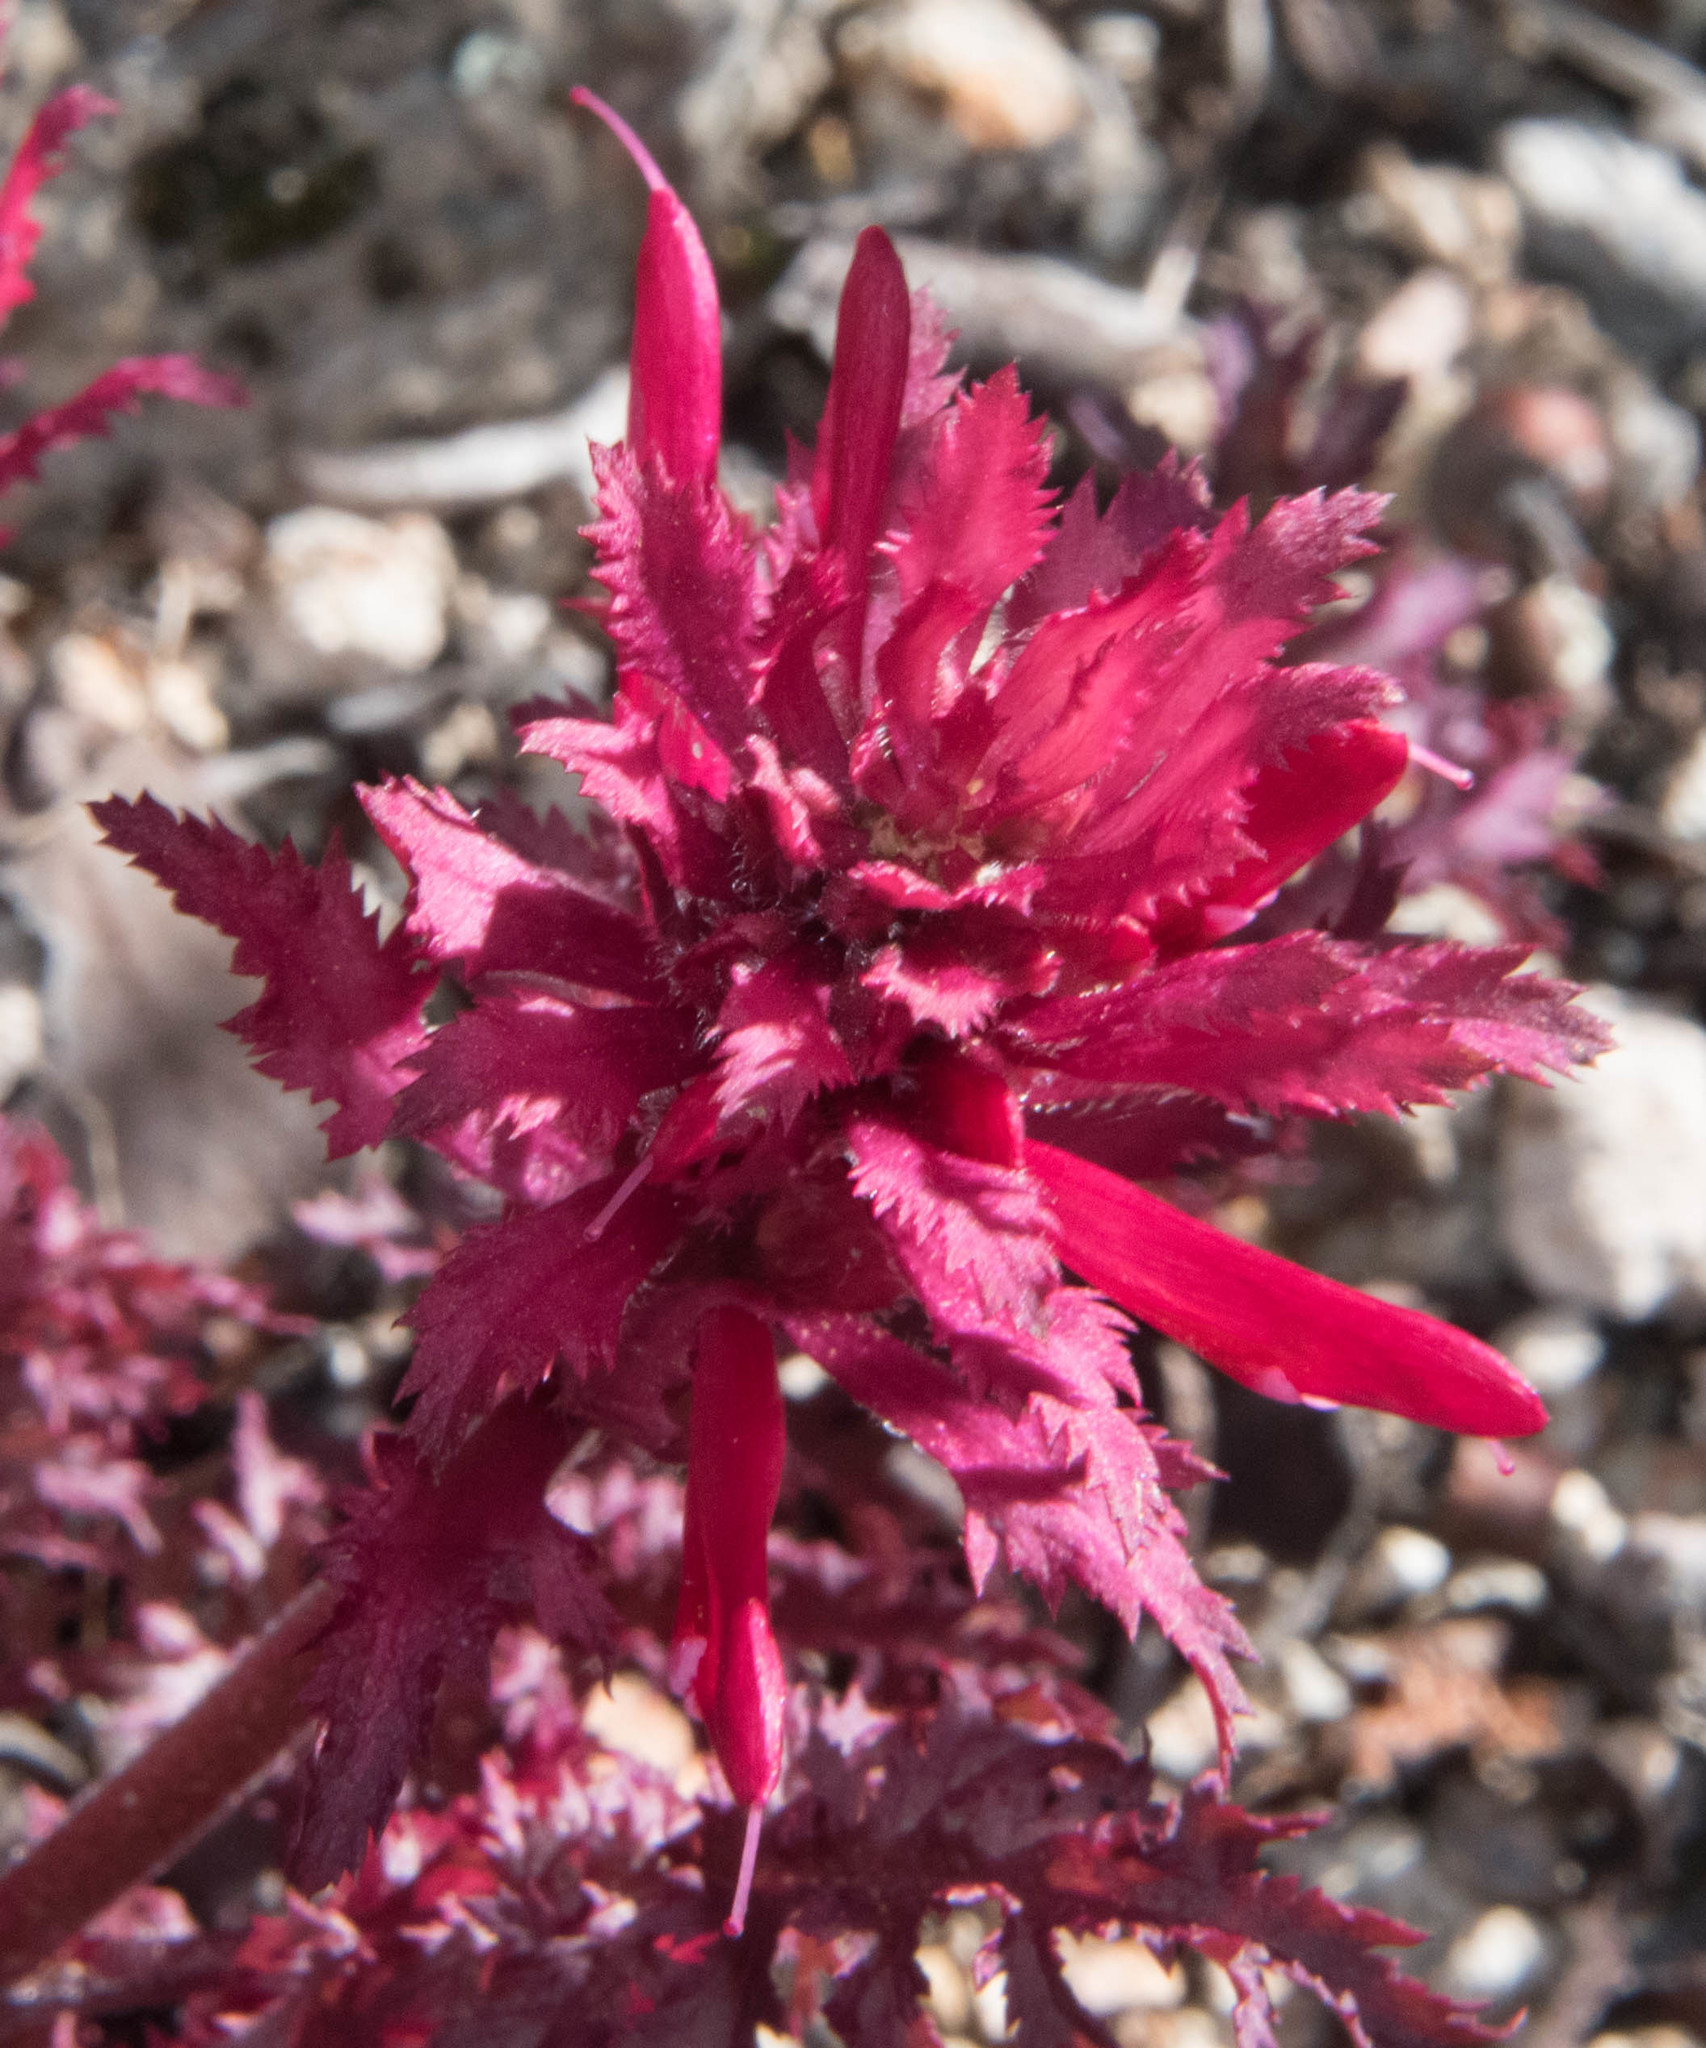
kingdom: Plantae
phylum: Tracheophyta
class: Magnoliopsida
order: Lamiales
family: Orobanchaceae
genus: Pedicularis
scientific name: Pedicularis densiflora
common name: Indian warrior
